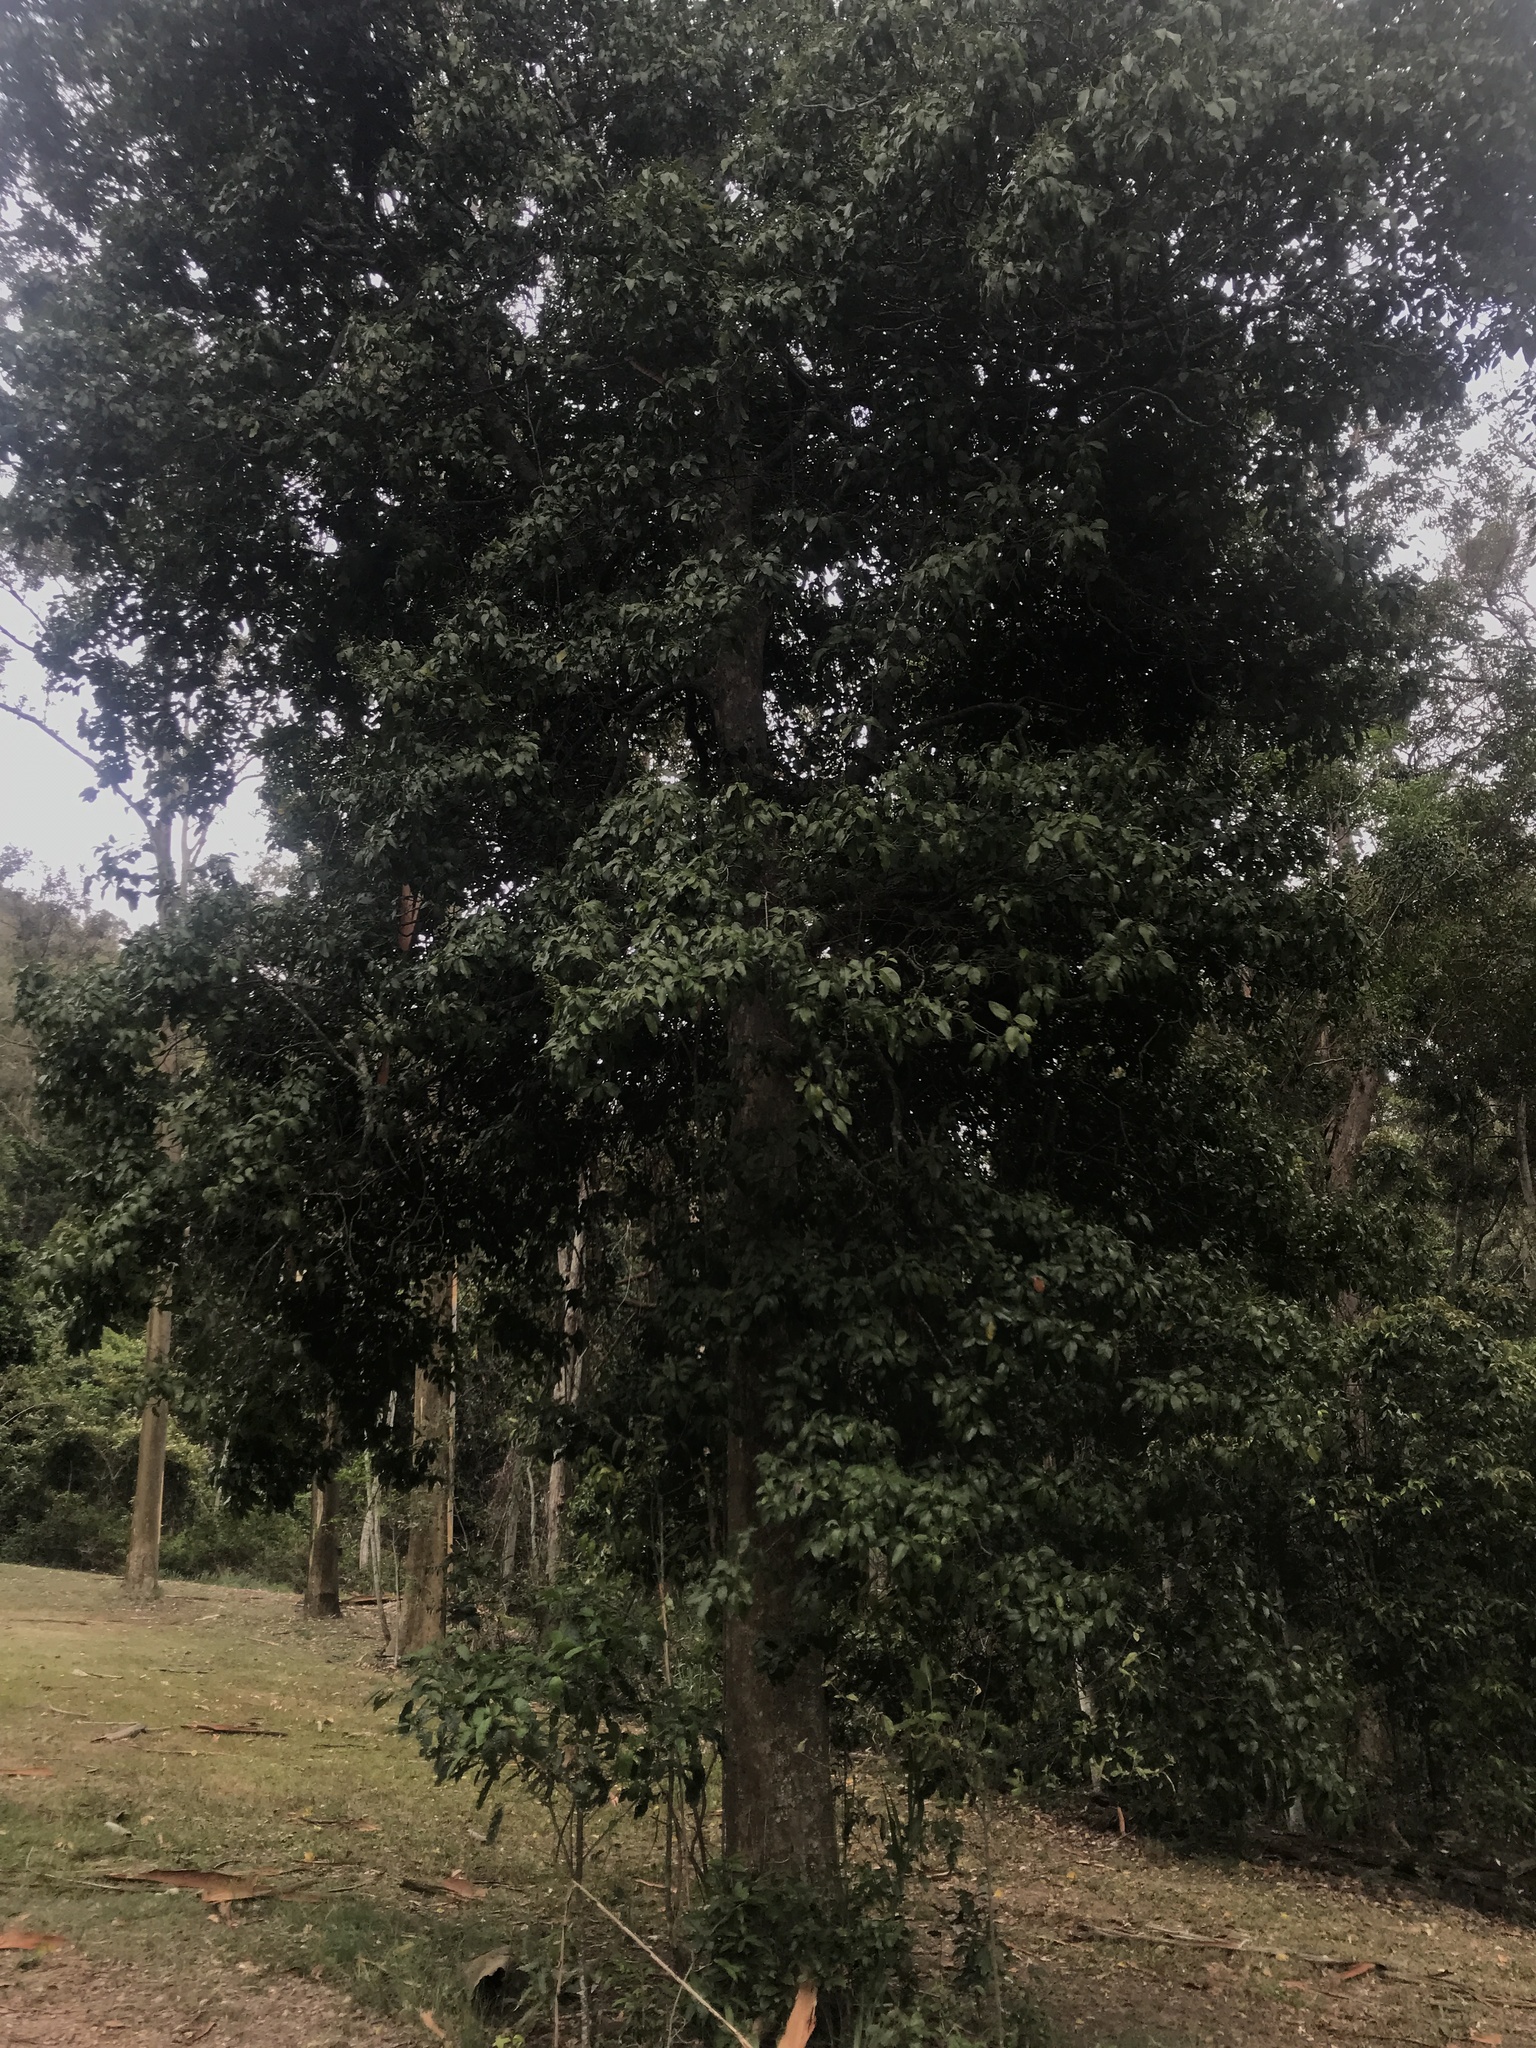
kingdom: Plantae
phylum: Tracheophyta
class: Magnoliopsida
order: Laurales
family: Lauraceae
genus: Cryptocarya
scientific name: Cryptocarya sclerophylla
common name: Totempole
